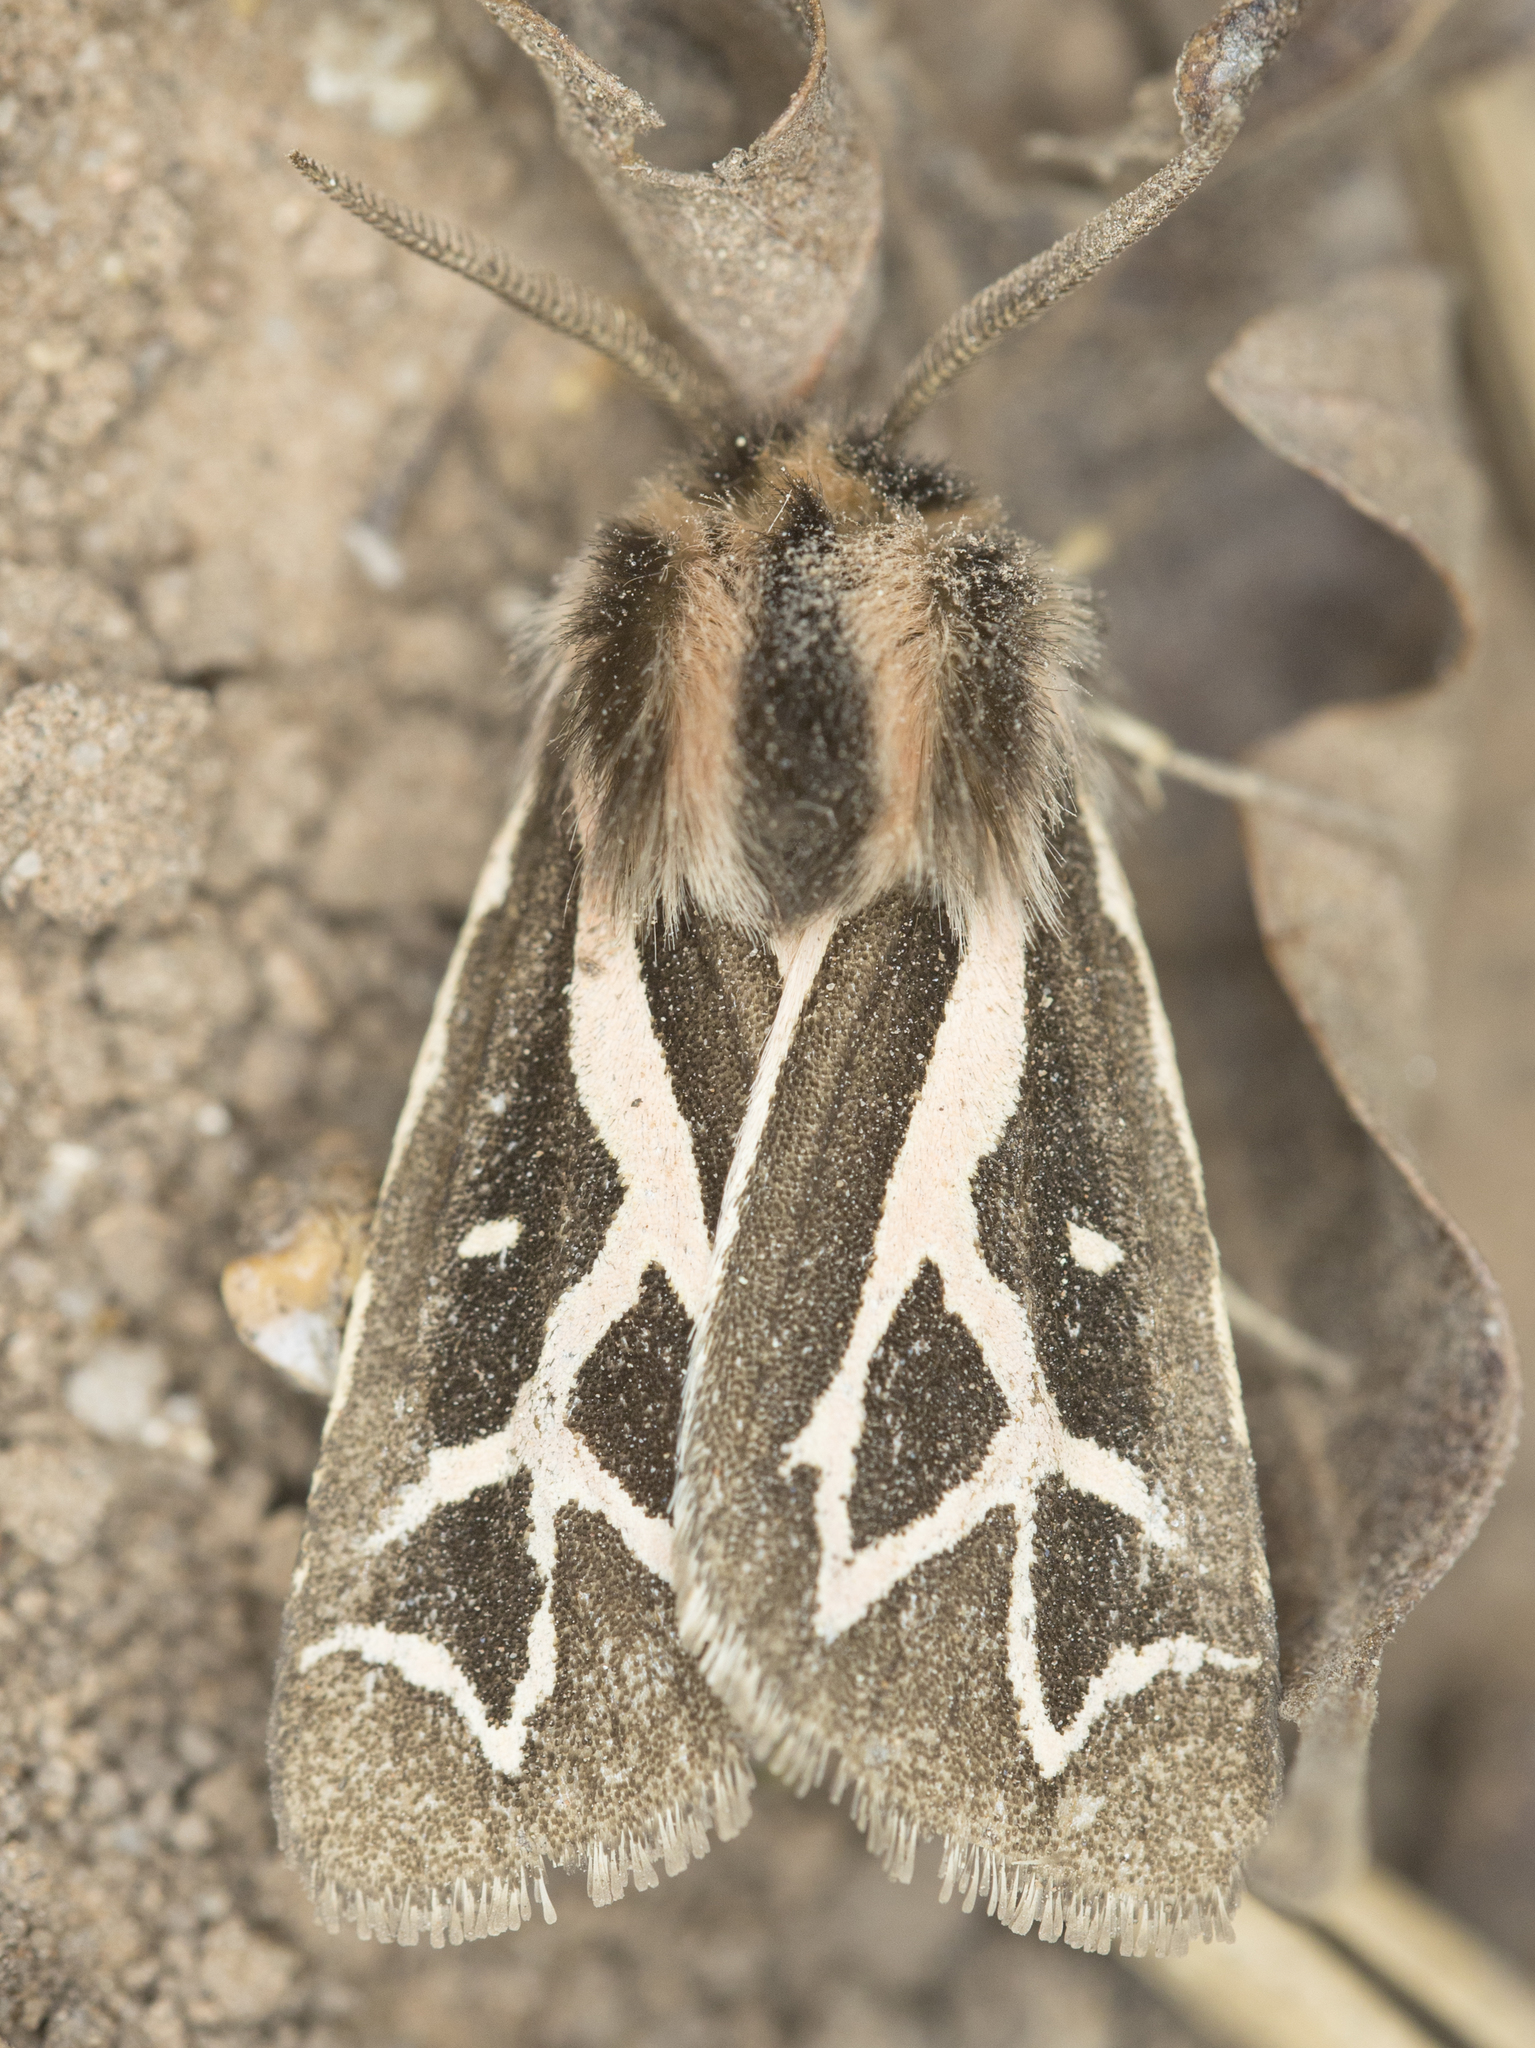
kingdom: Animalia
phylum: Arthropoda
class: Insecta
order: Lepidoptera
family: Erebidae
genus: Apantesis
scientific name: Apantesis
